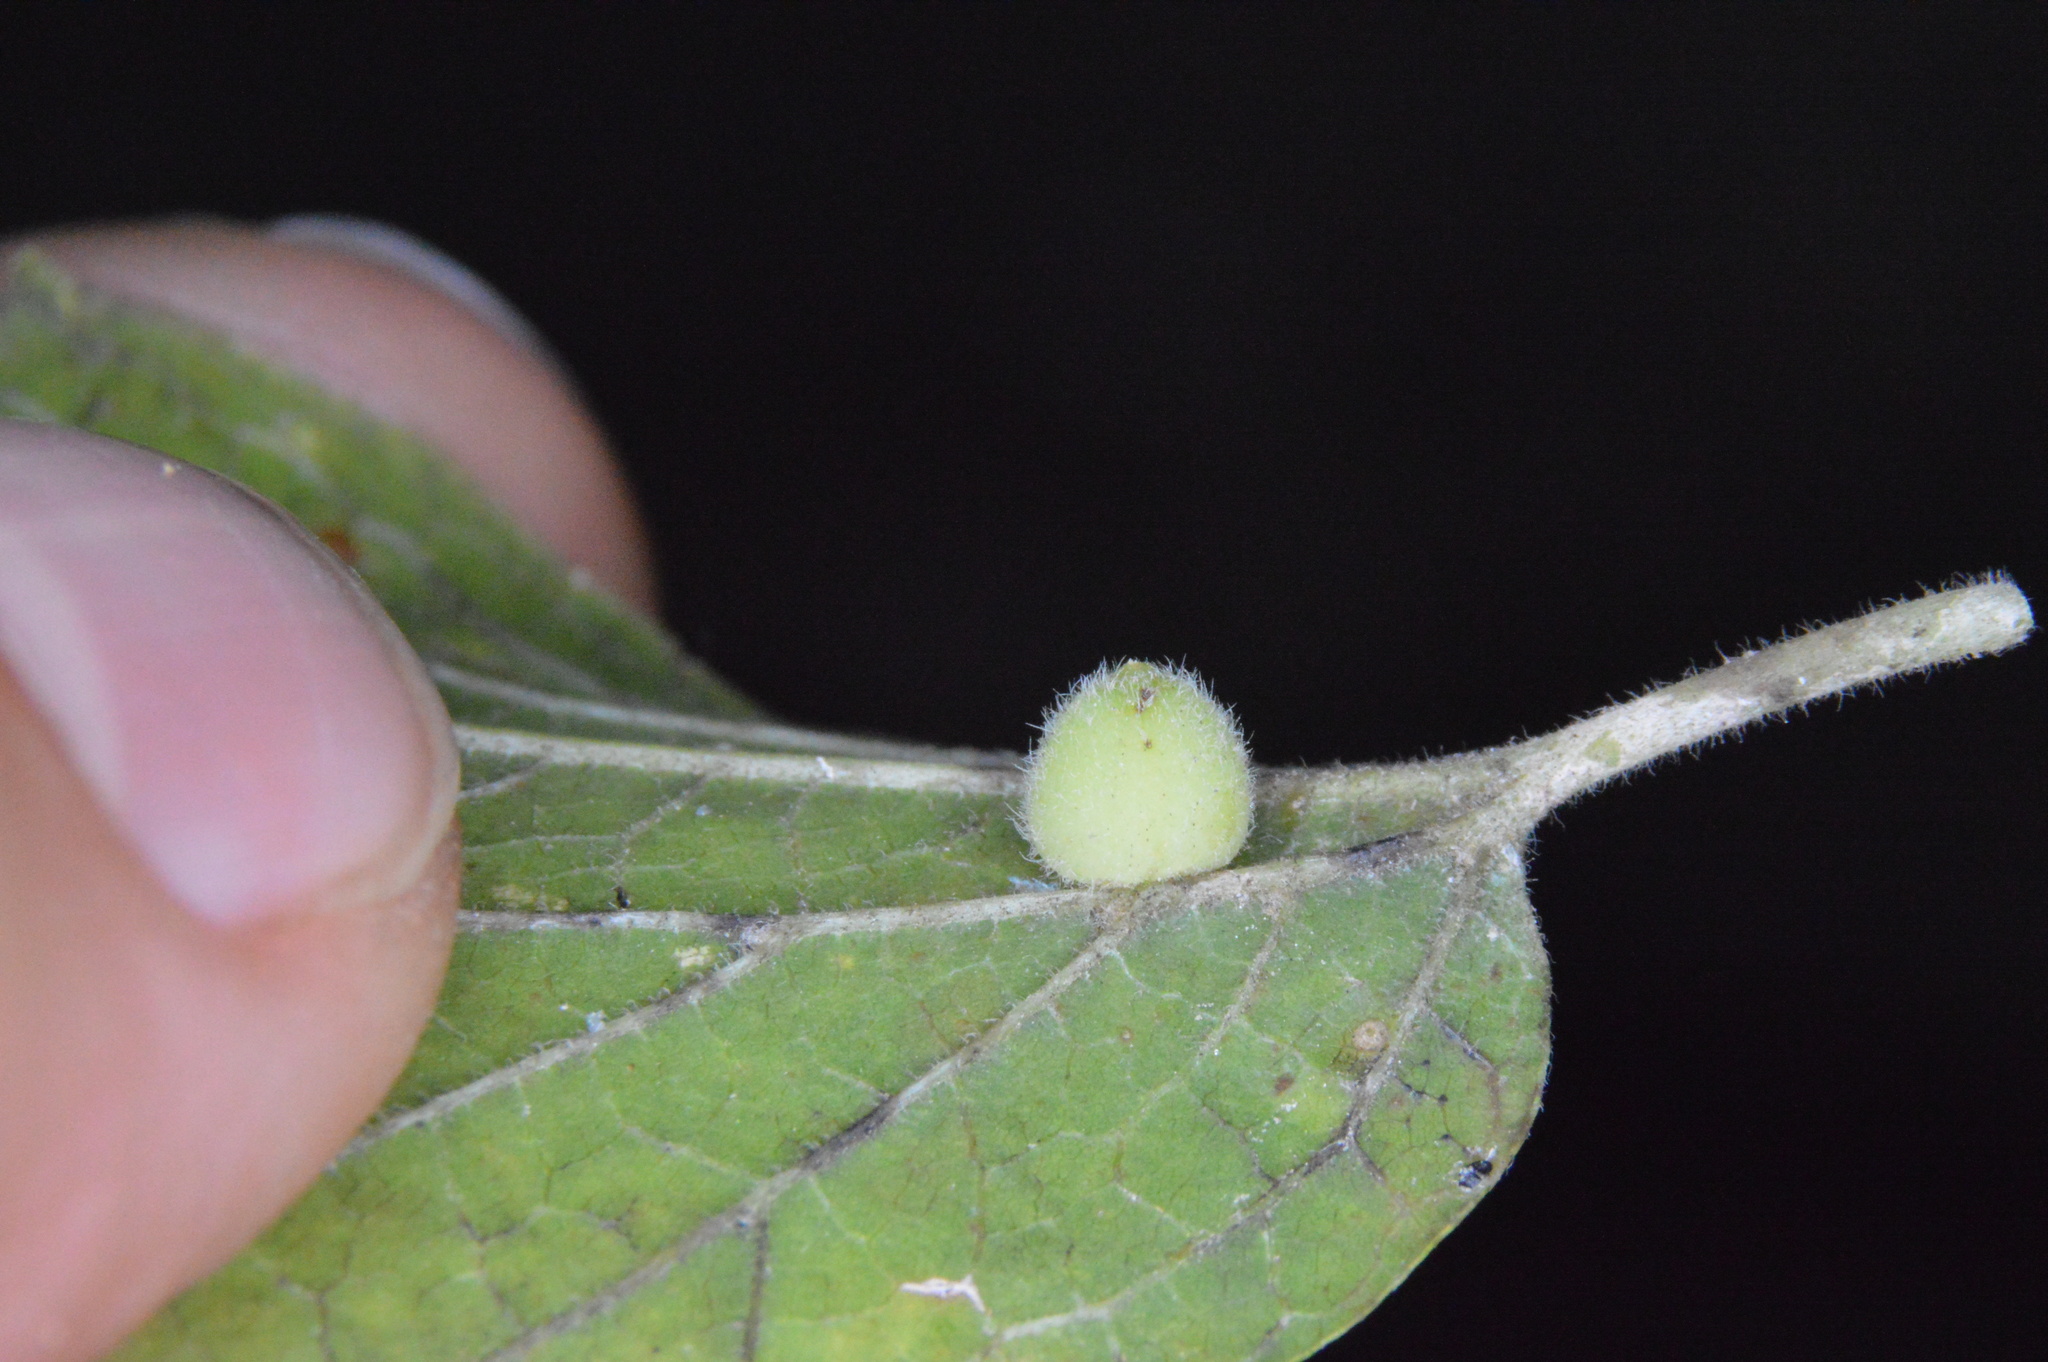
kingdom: Animalia
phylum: Arthropoda
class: Insecta
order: Diptera
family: Cecidomyiidae
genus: Celticecis
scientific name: Celticecis globosa
